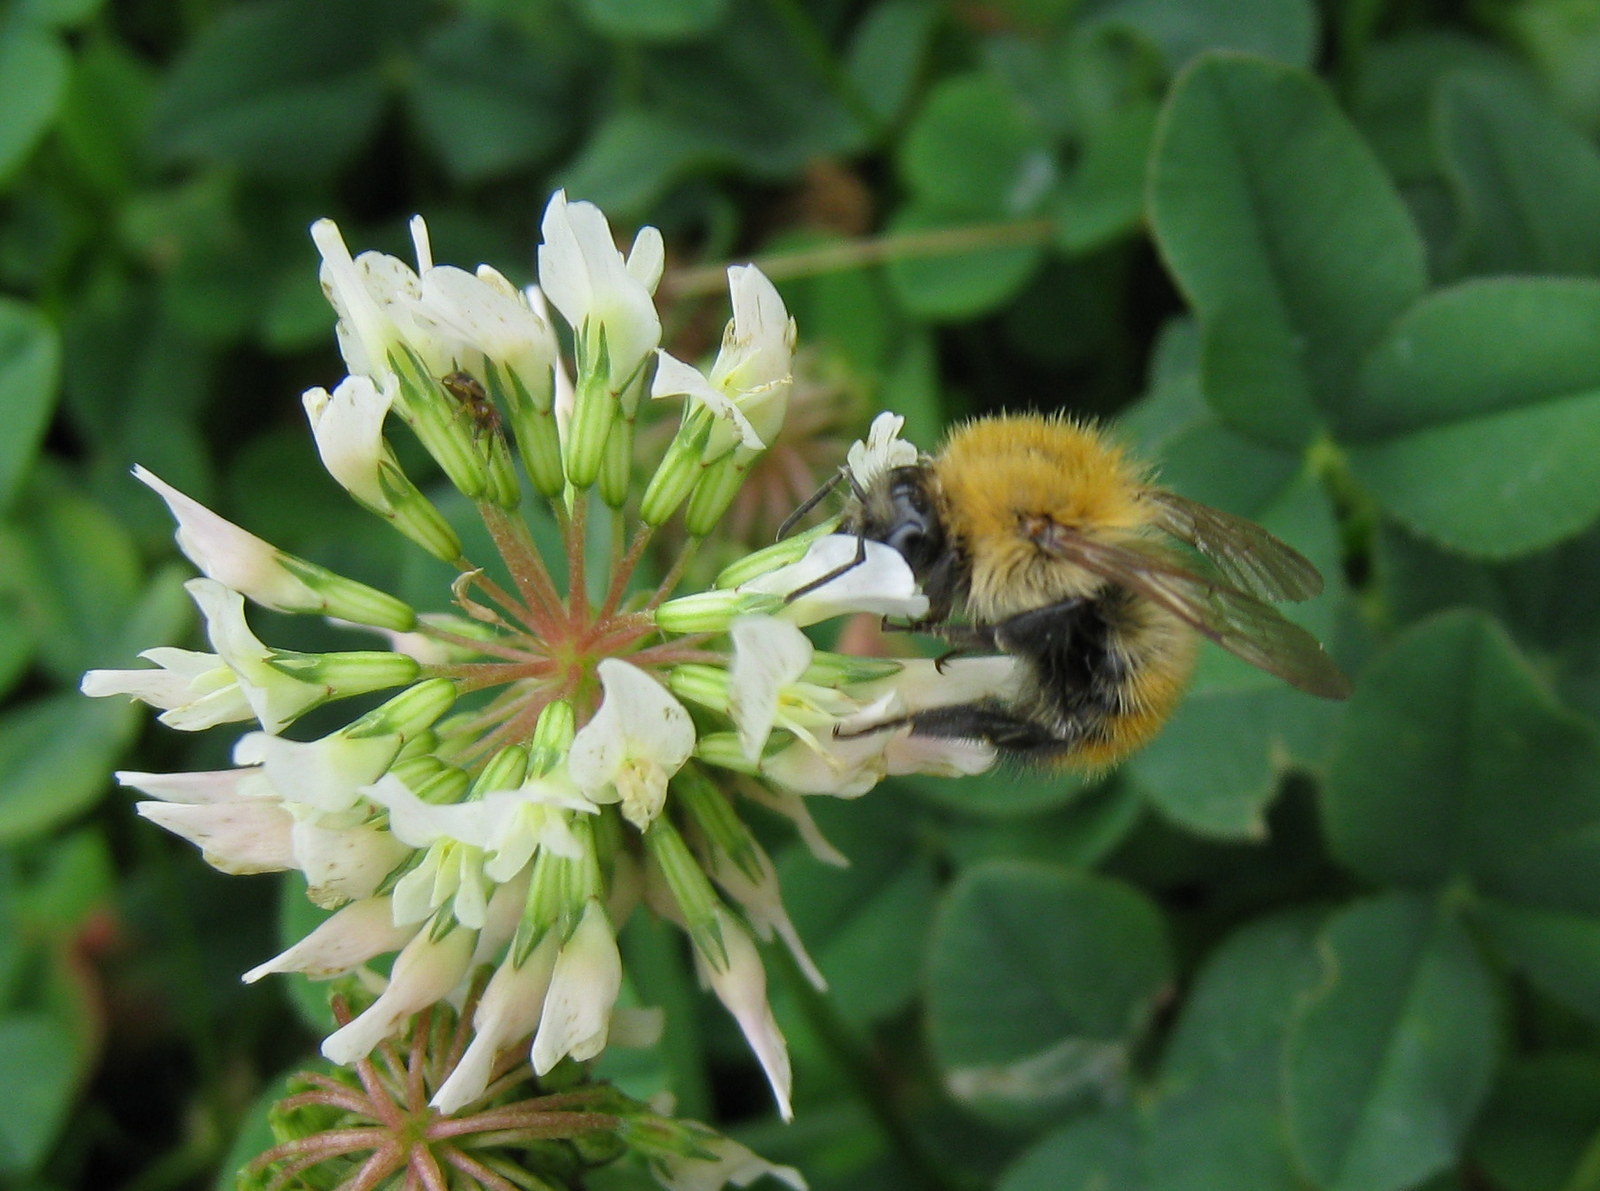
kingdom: Animalia
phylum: Arthropoda
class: Insecta
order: Hymenoptera
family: Apidae
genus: Bombus
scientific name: Bombus pascuorum
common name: Common carder bee
